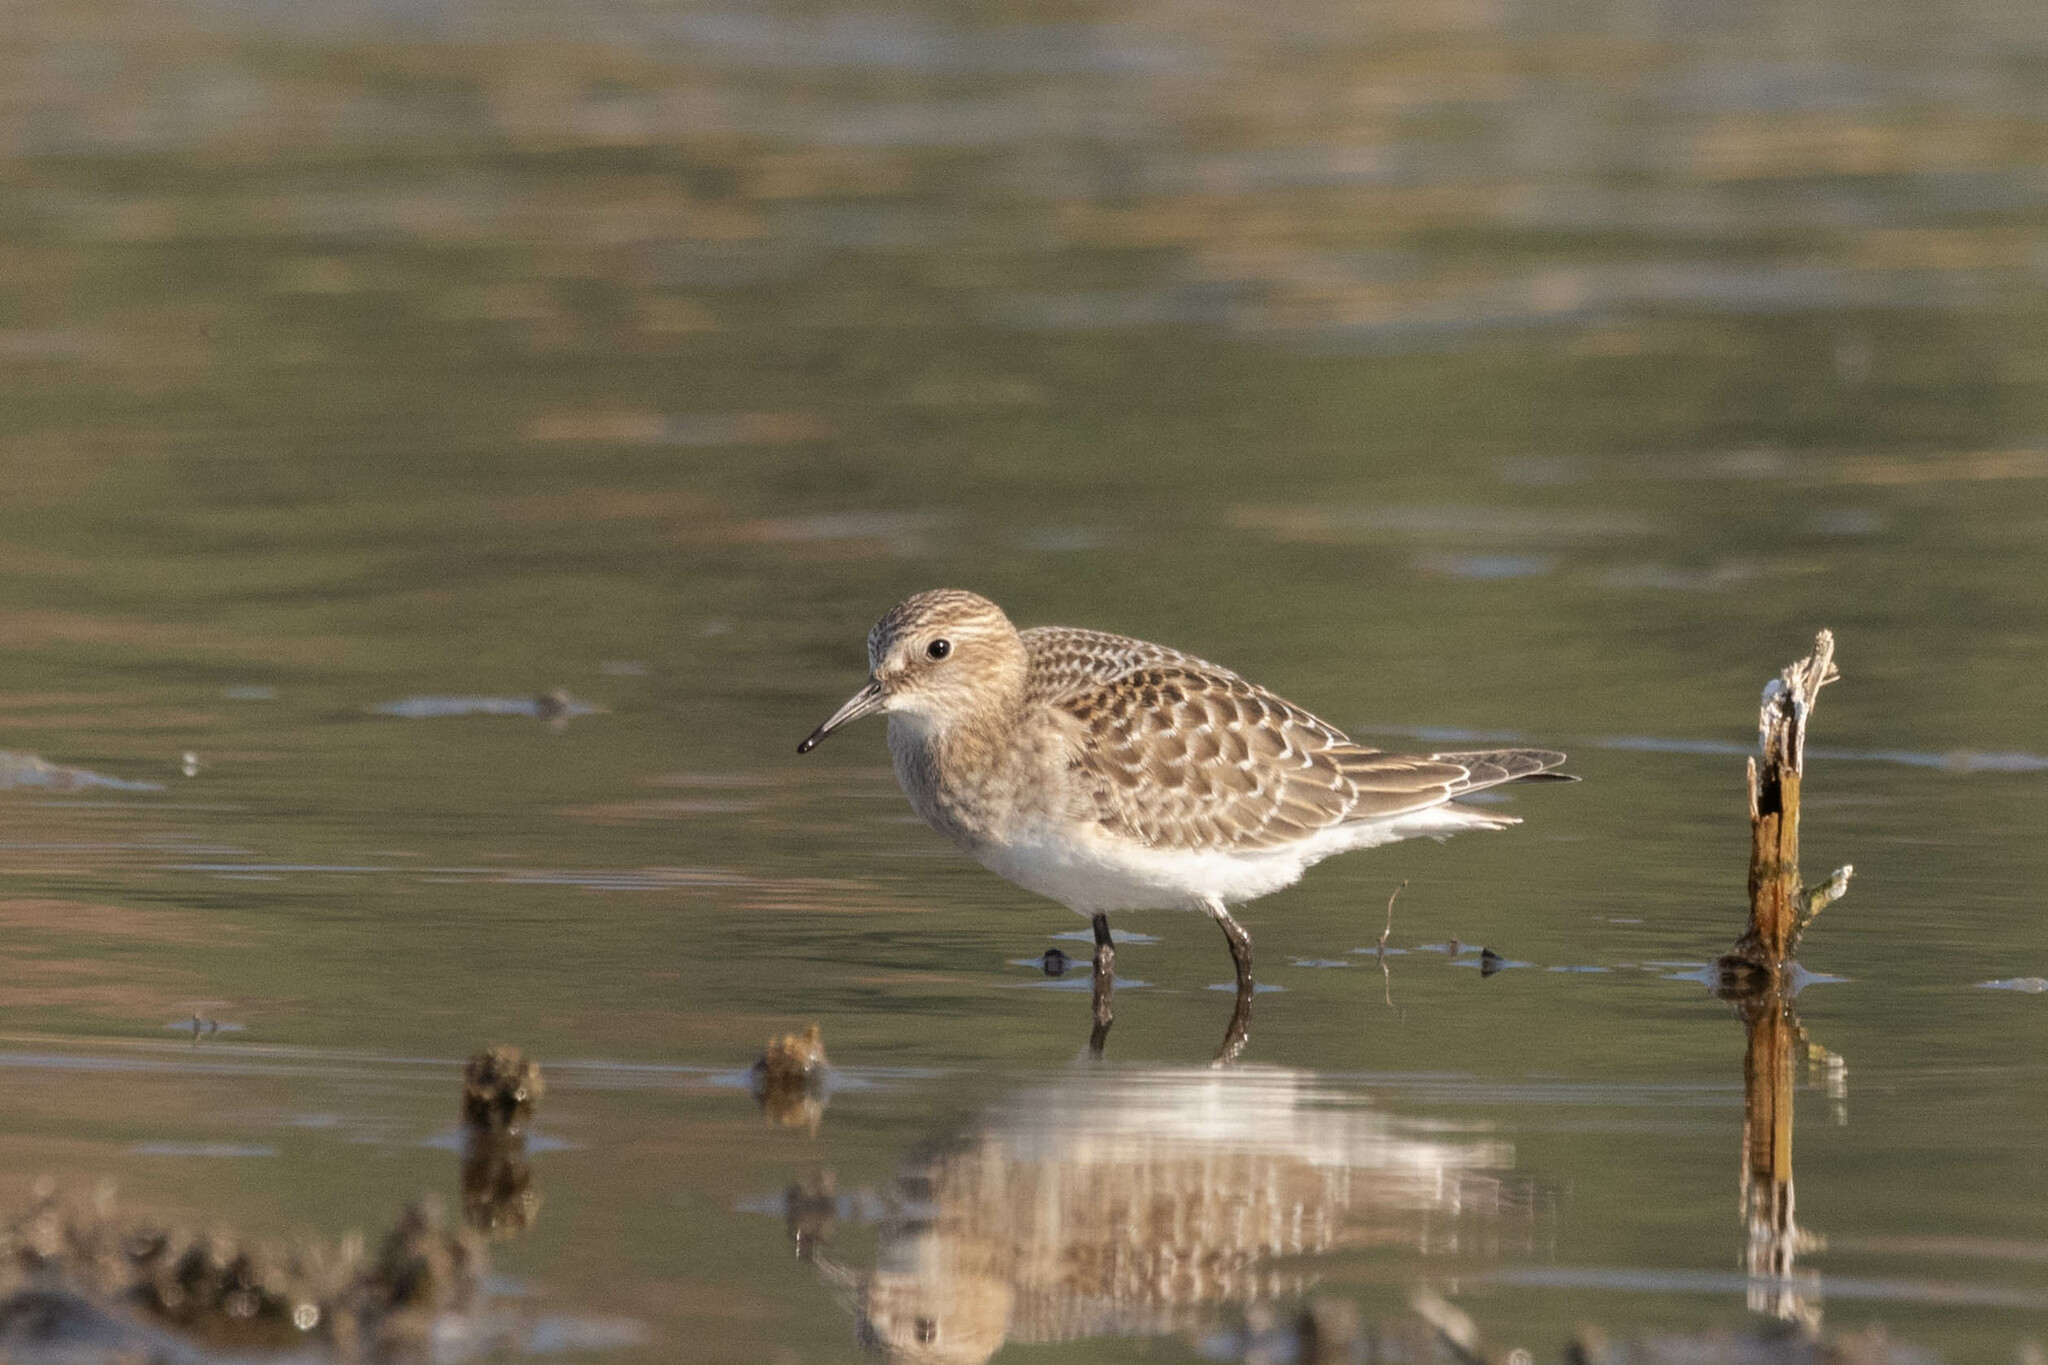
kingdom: Animalia
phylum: Chordata
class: Aves
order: Charadriiformes
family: Scolopacidae
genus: Calidris
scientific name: Calidris bairdii
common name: Baird's sandpiper
